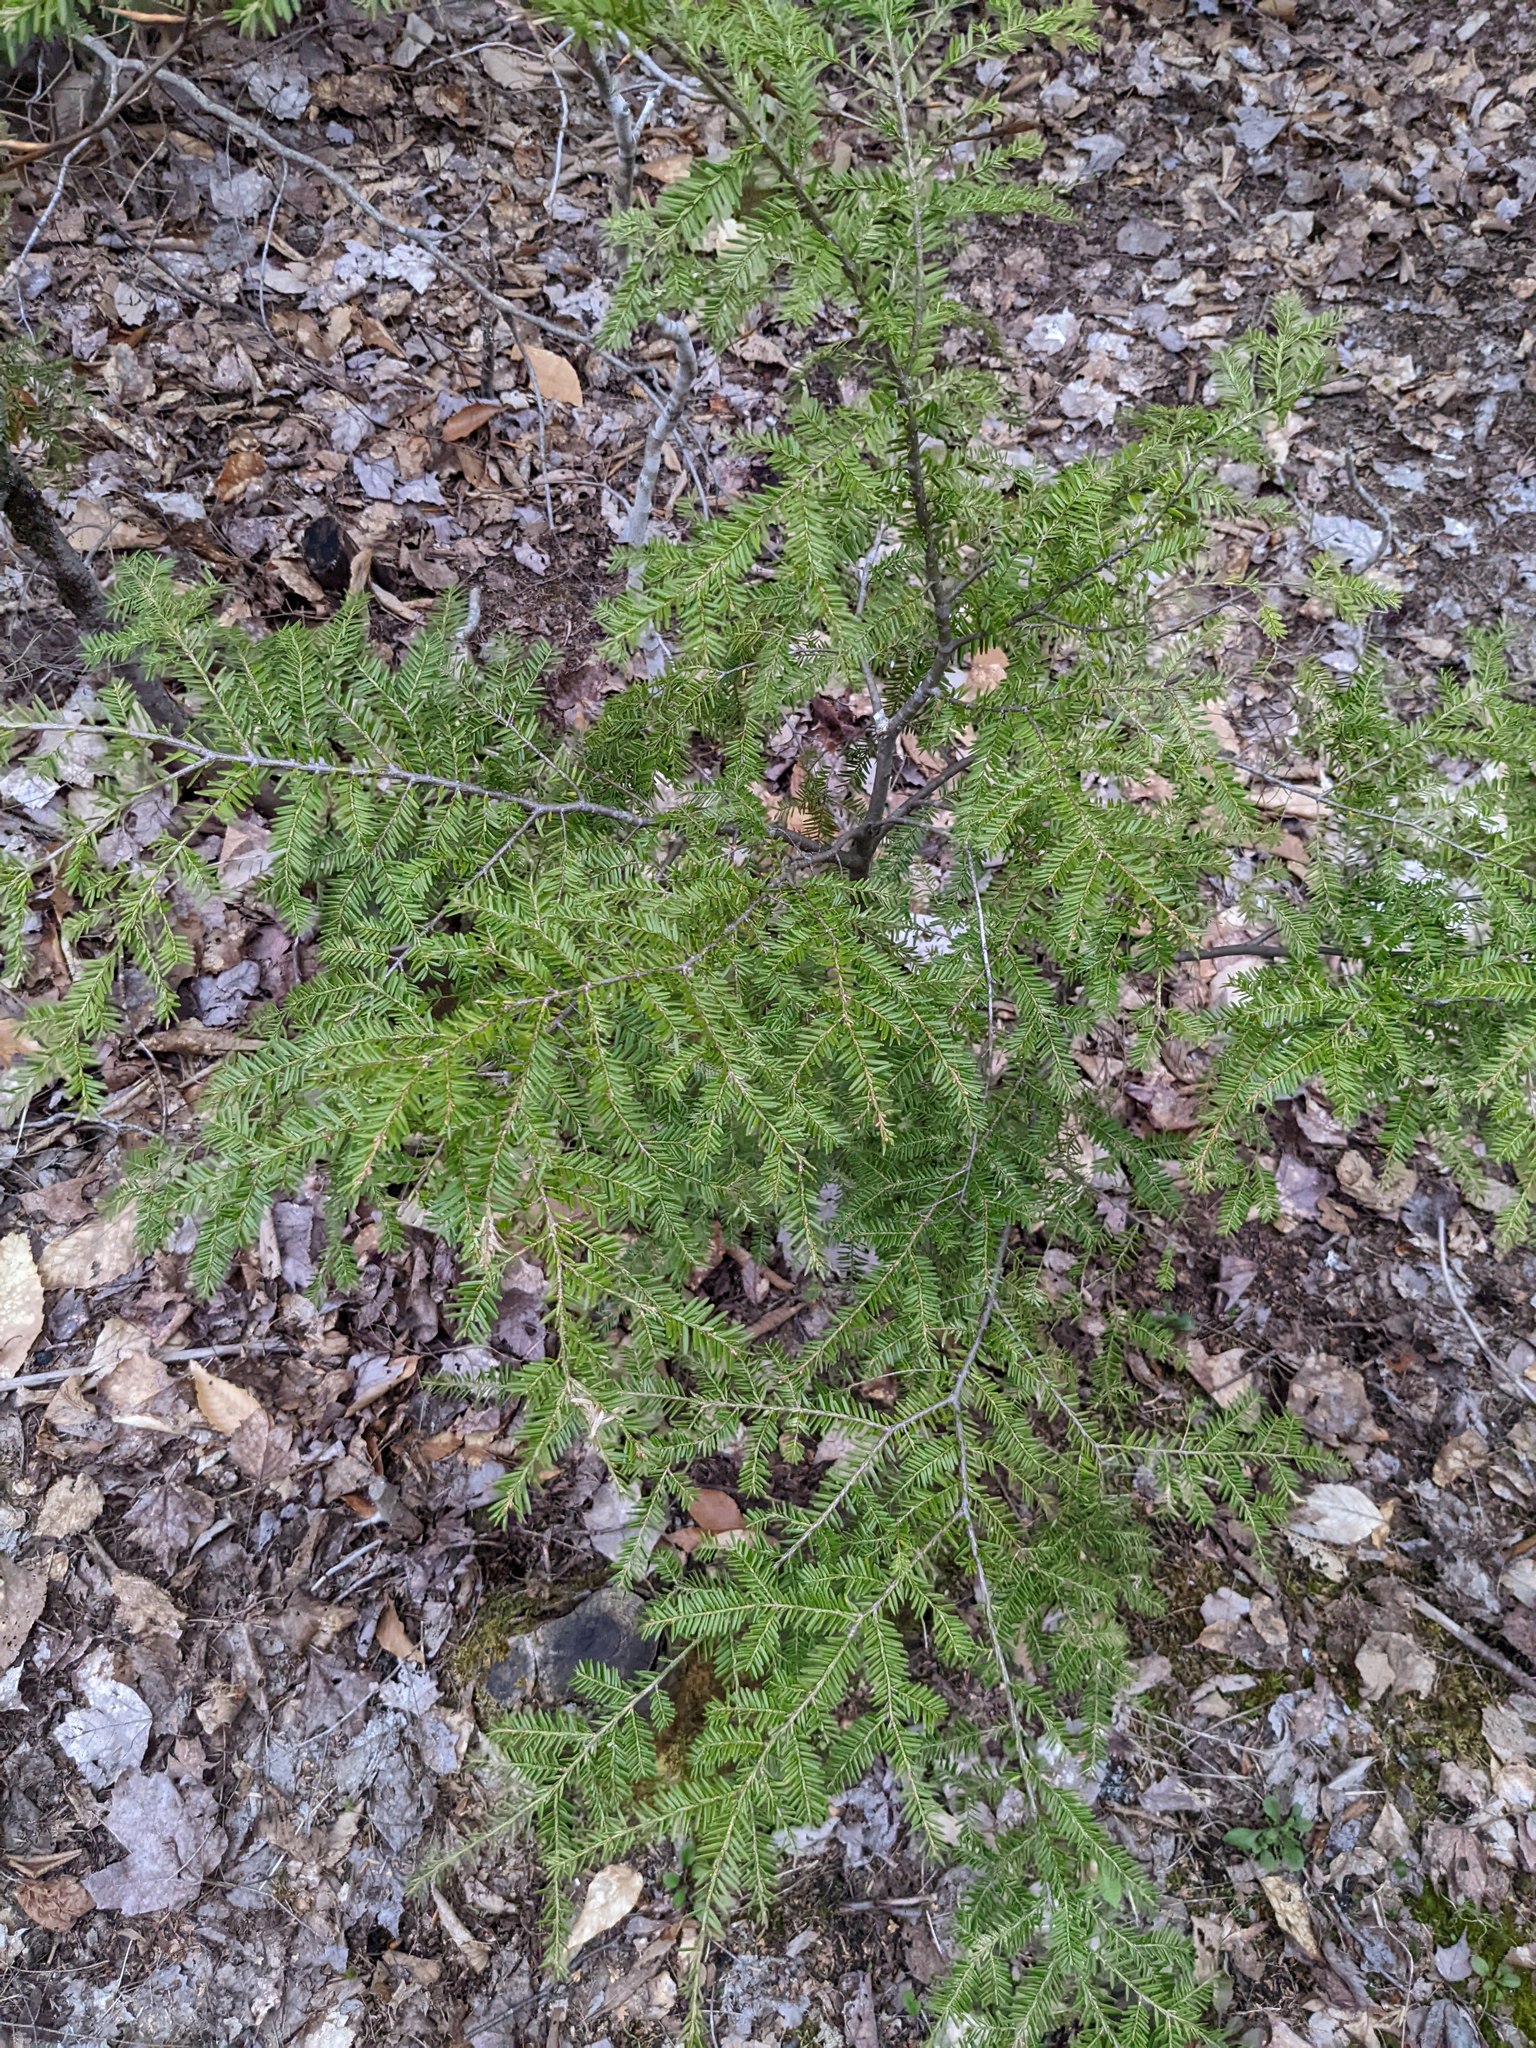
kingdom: Plantae
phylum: Tracheophyta
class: Pinopsida
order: Pinales
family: Pinaceae
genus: Tsuga
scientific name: Tsuga canadensis
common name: Eastern hemlock
